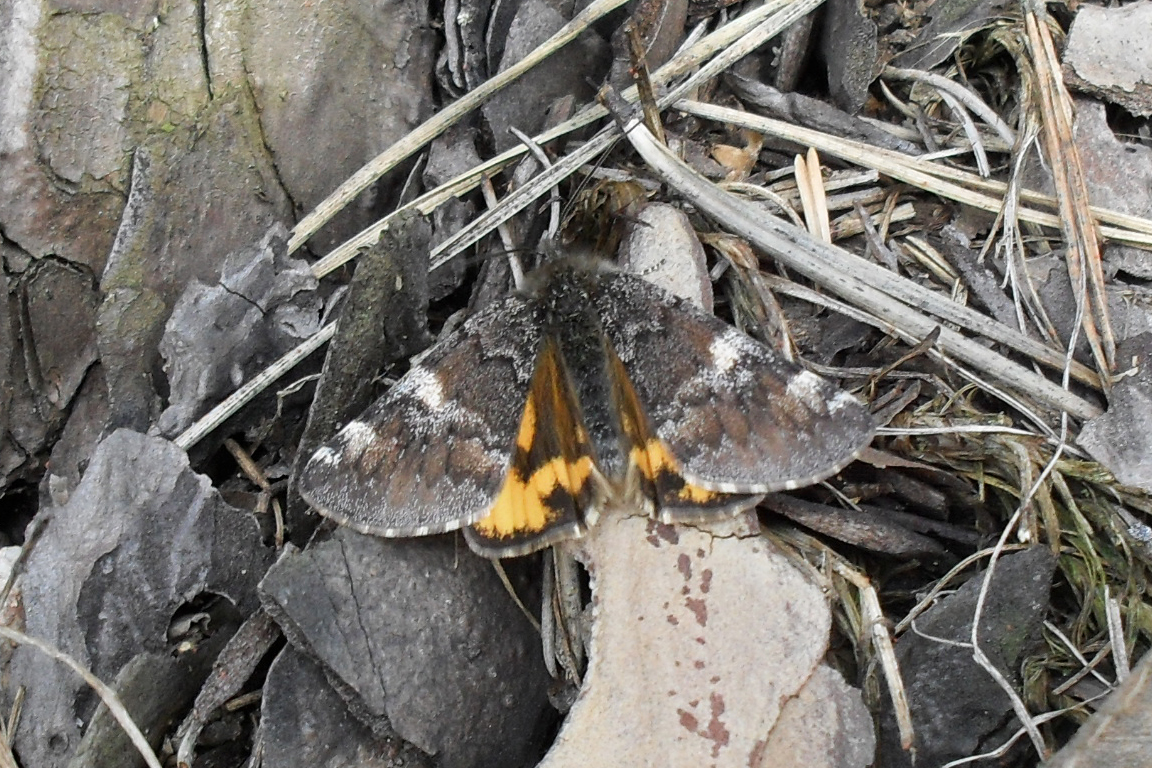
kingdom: Animalia
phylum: Arthropoda
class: Insecta
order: Lepidoptera
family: Geometridae
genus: Archiearis
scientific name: Archiearis parthenias
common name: Orange underwing
